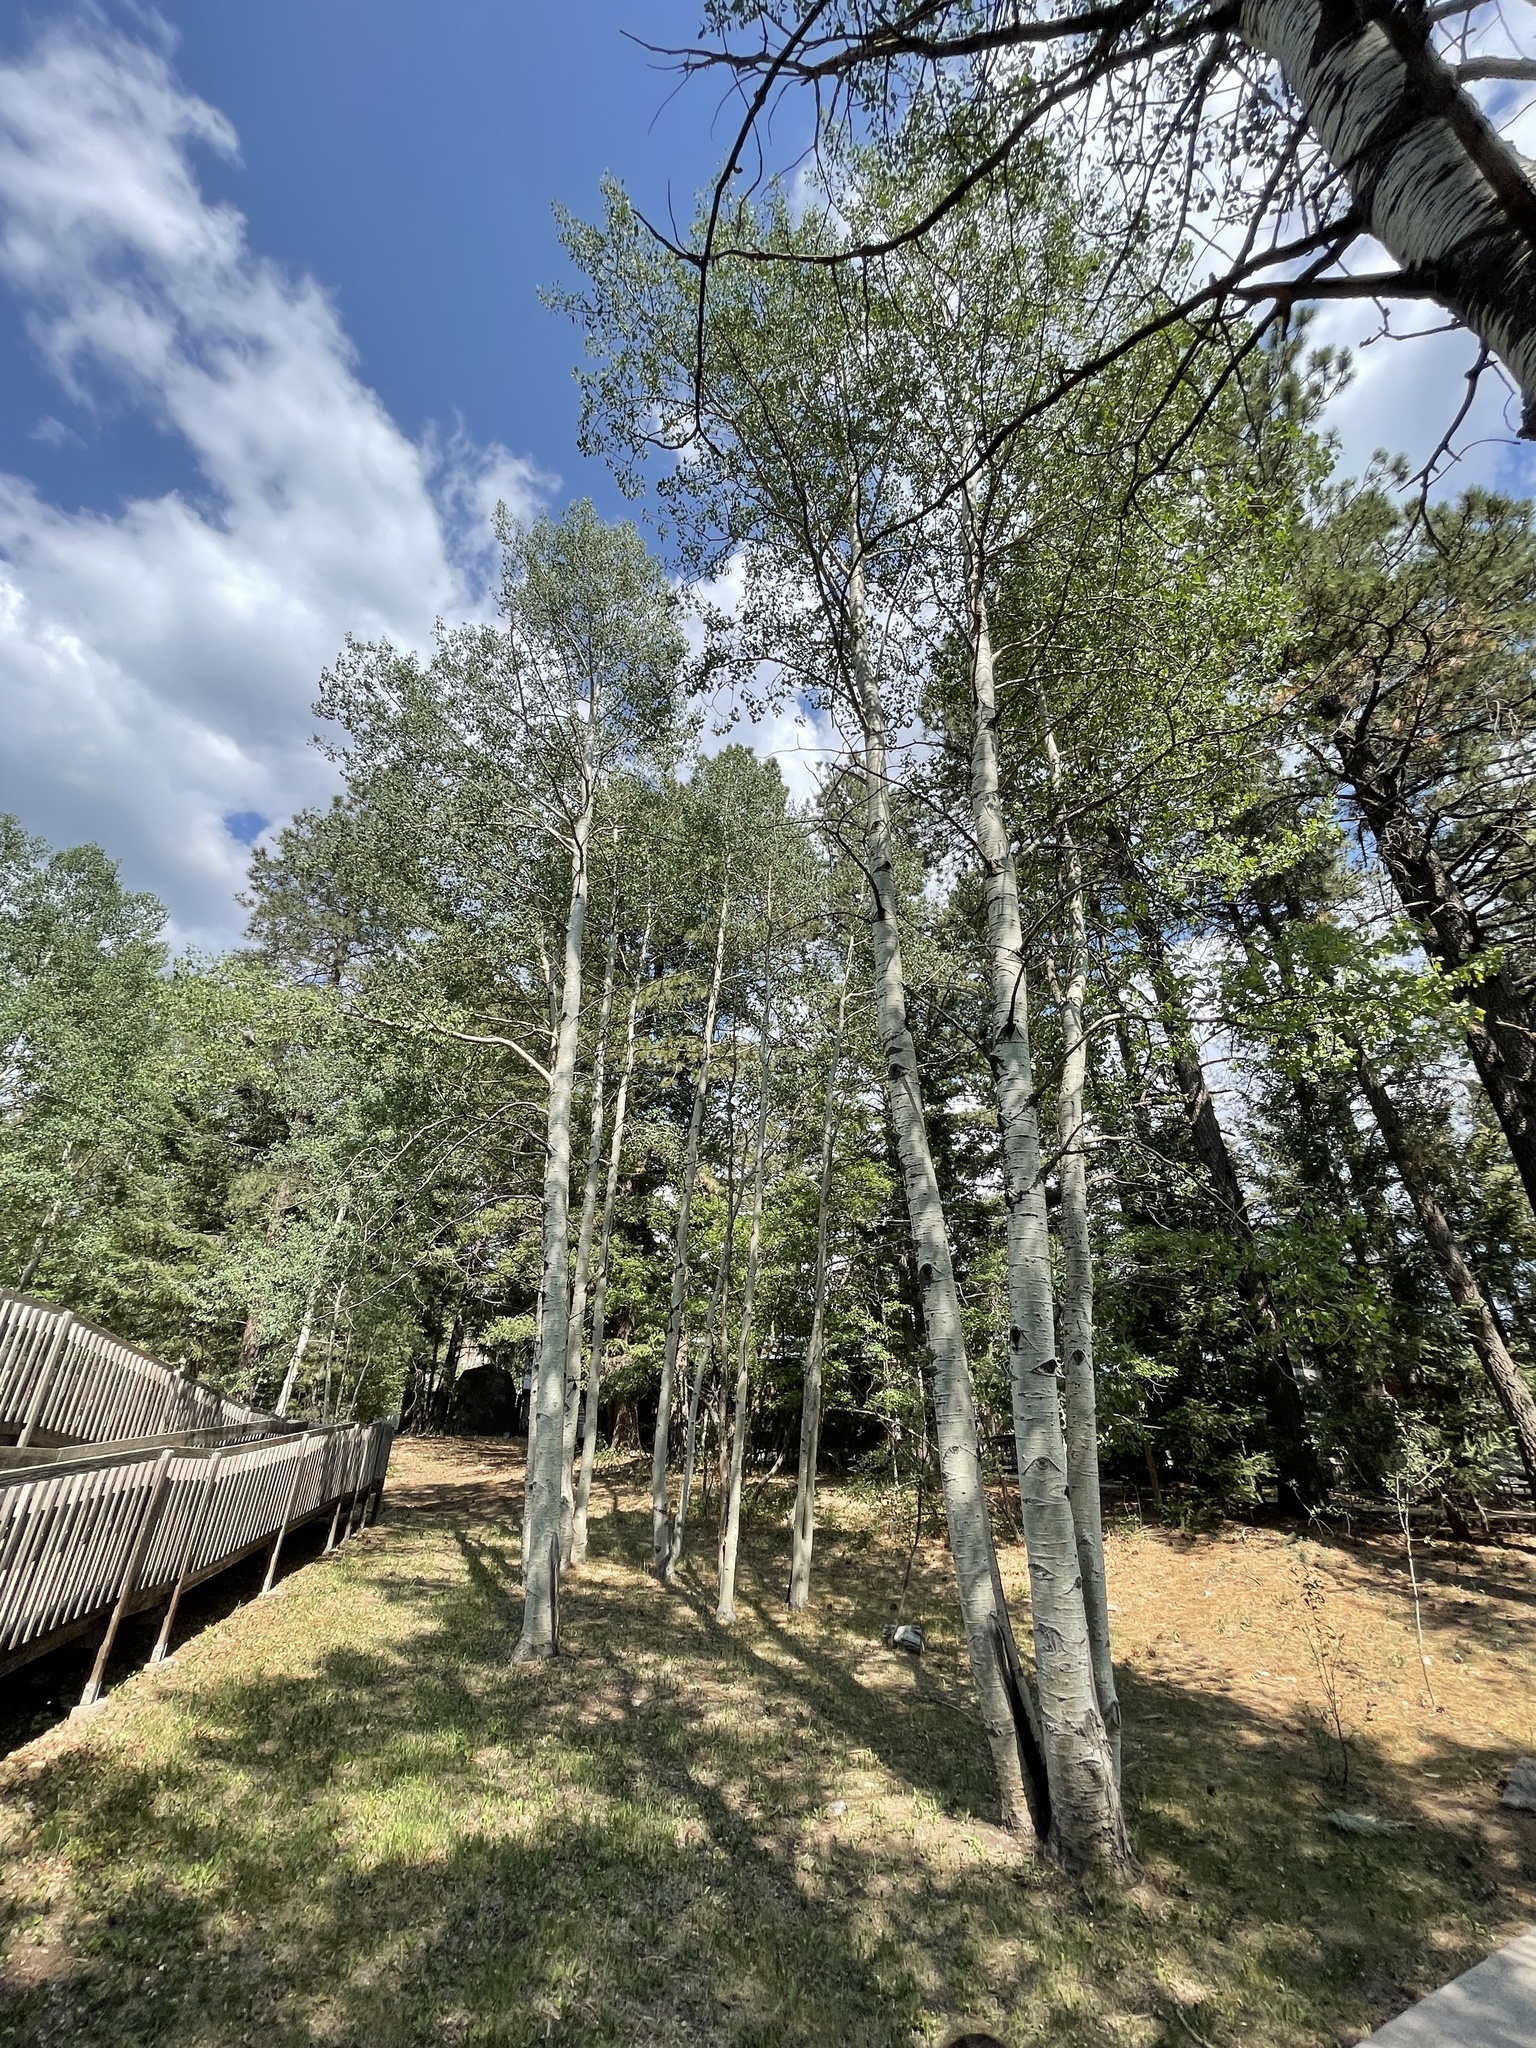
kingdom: Plantae
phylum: Tracheophyta
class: Magnoliopsida
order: Malpighiales
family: Salicaceae
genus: Populus
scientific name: Populus tremuloides
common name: Quaking aspen
